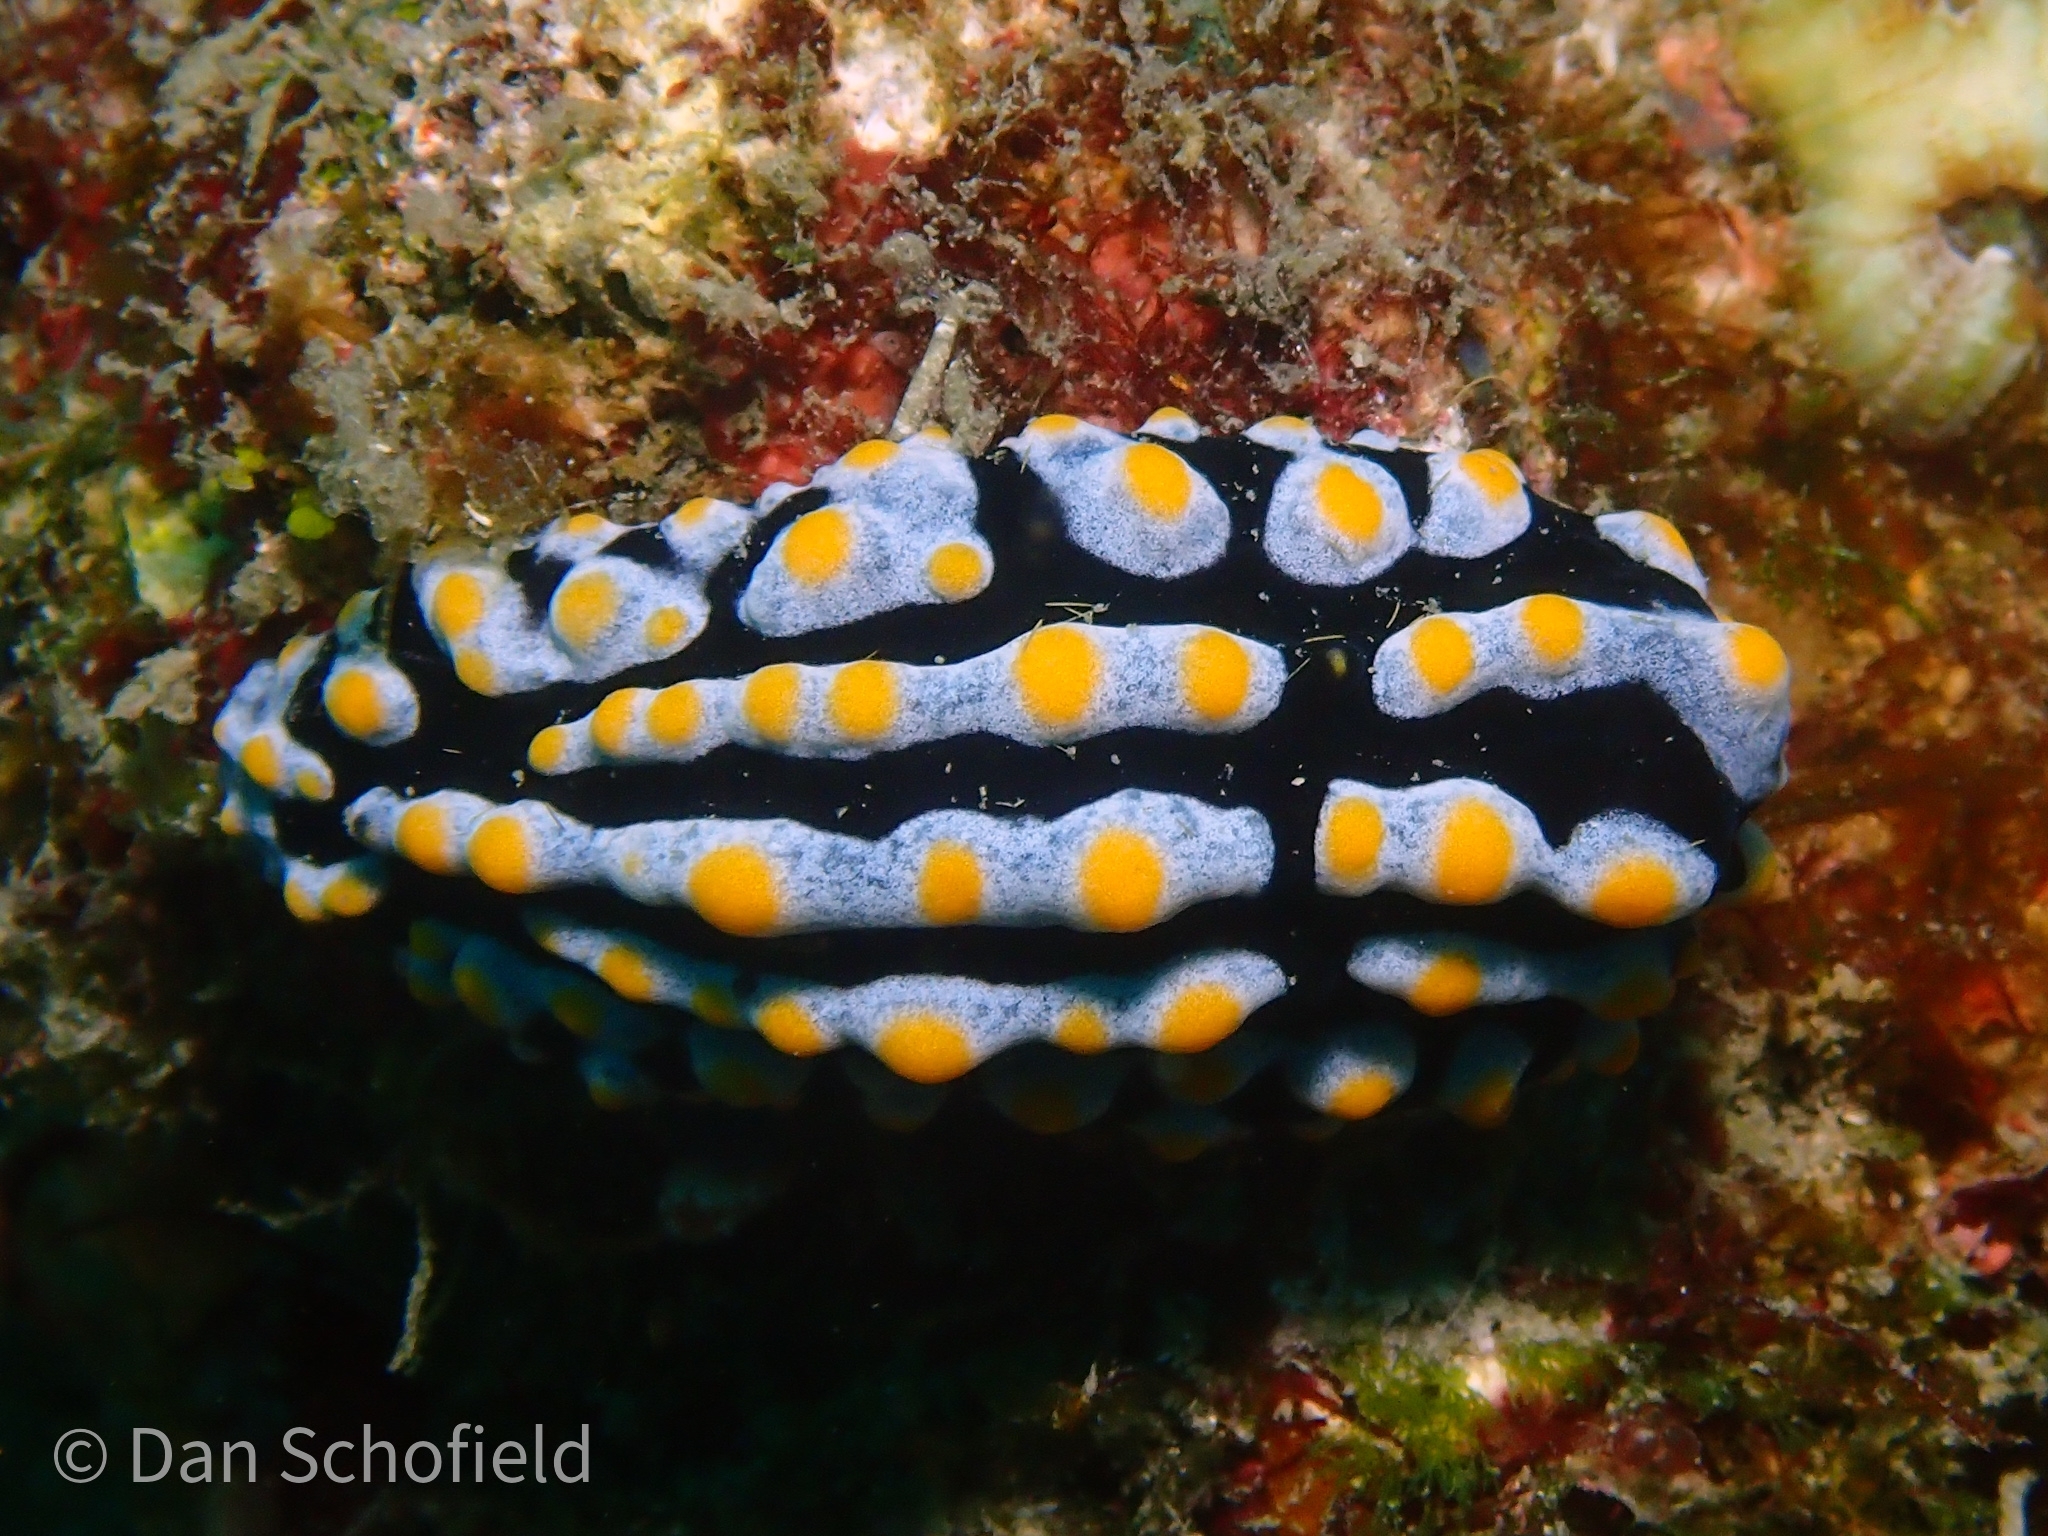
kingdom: Animalia
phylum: Mollusca
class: Gastropoda
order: Nudibranchia
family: Phyllidiidae
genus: Phyllidia
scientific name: Phyllidia varicosa
